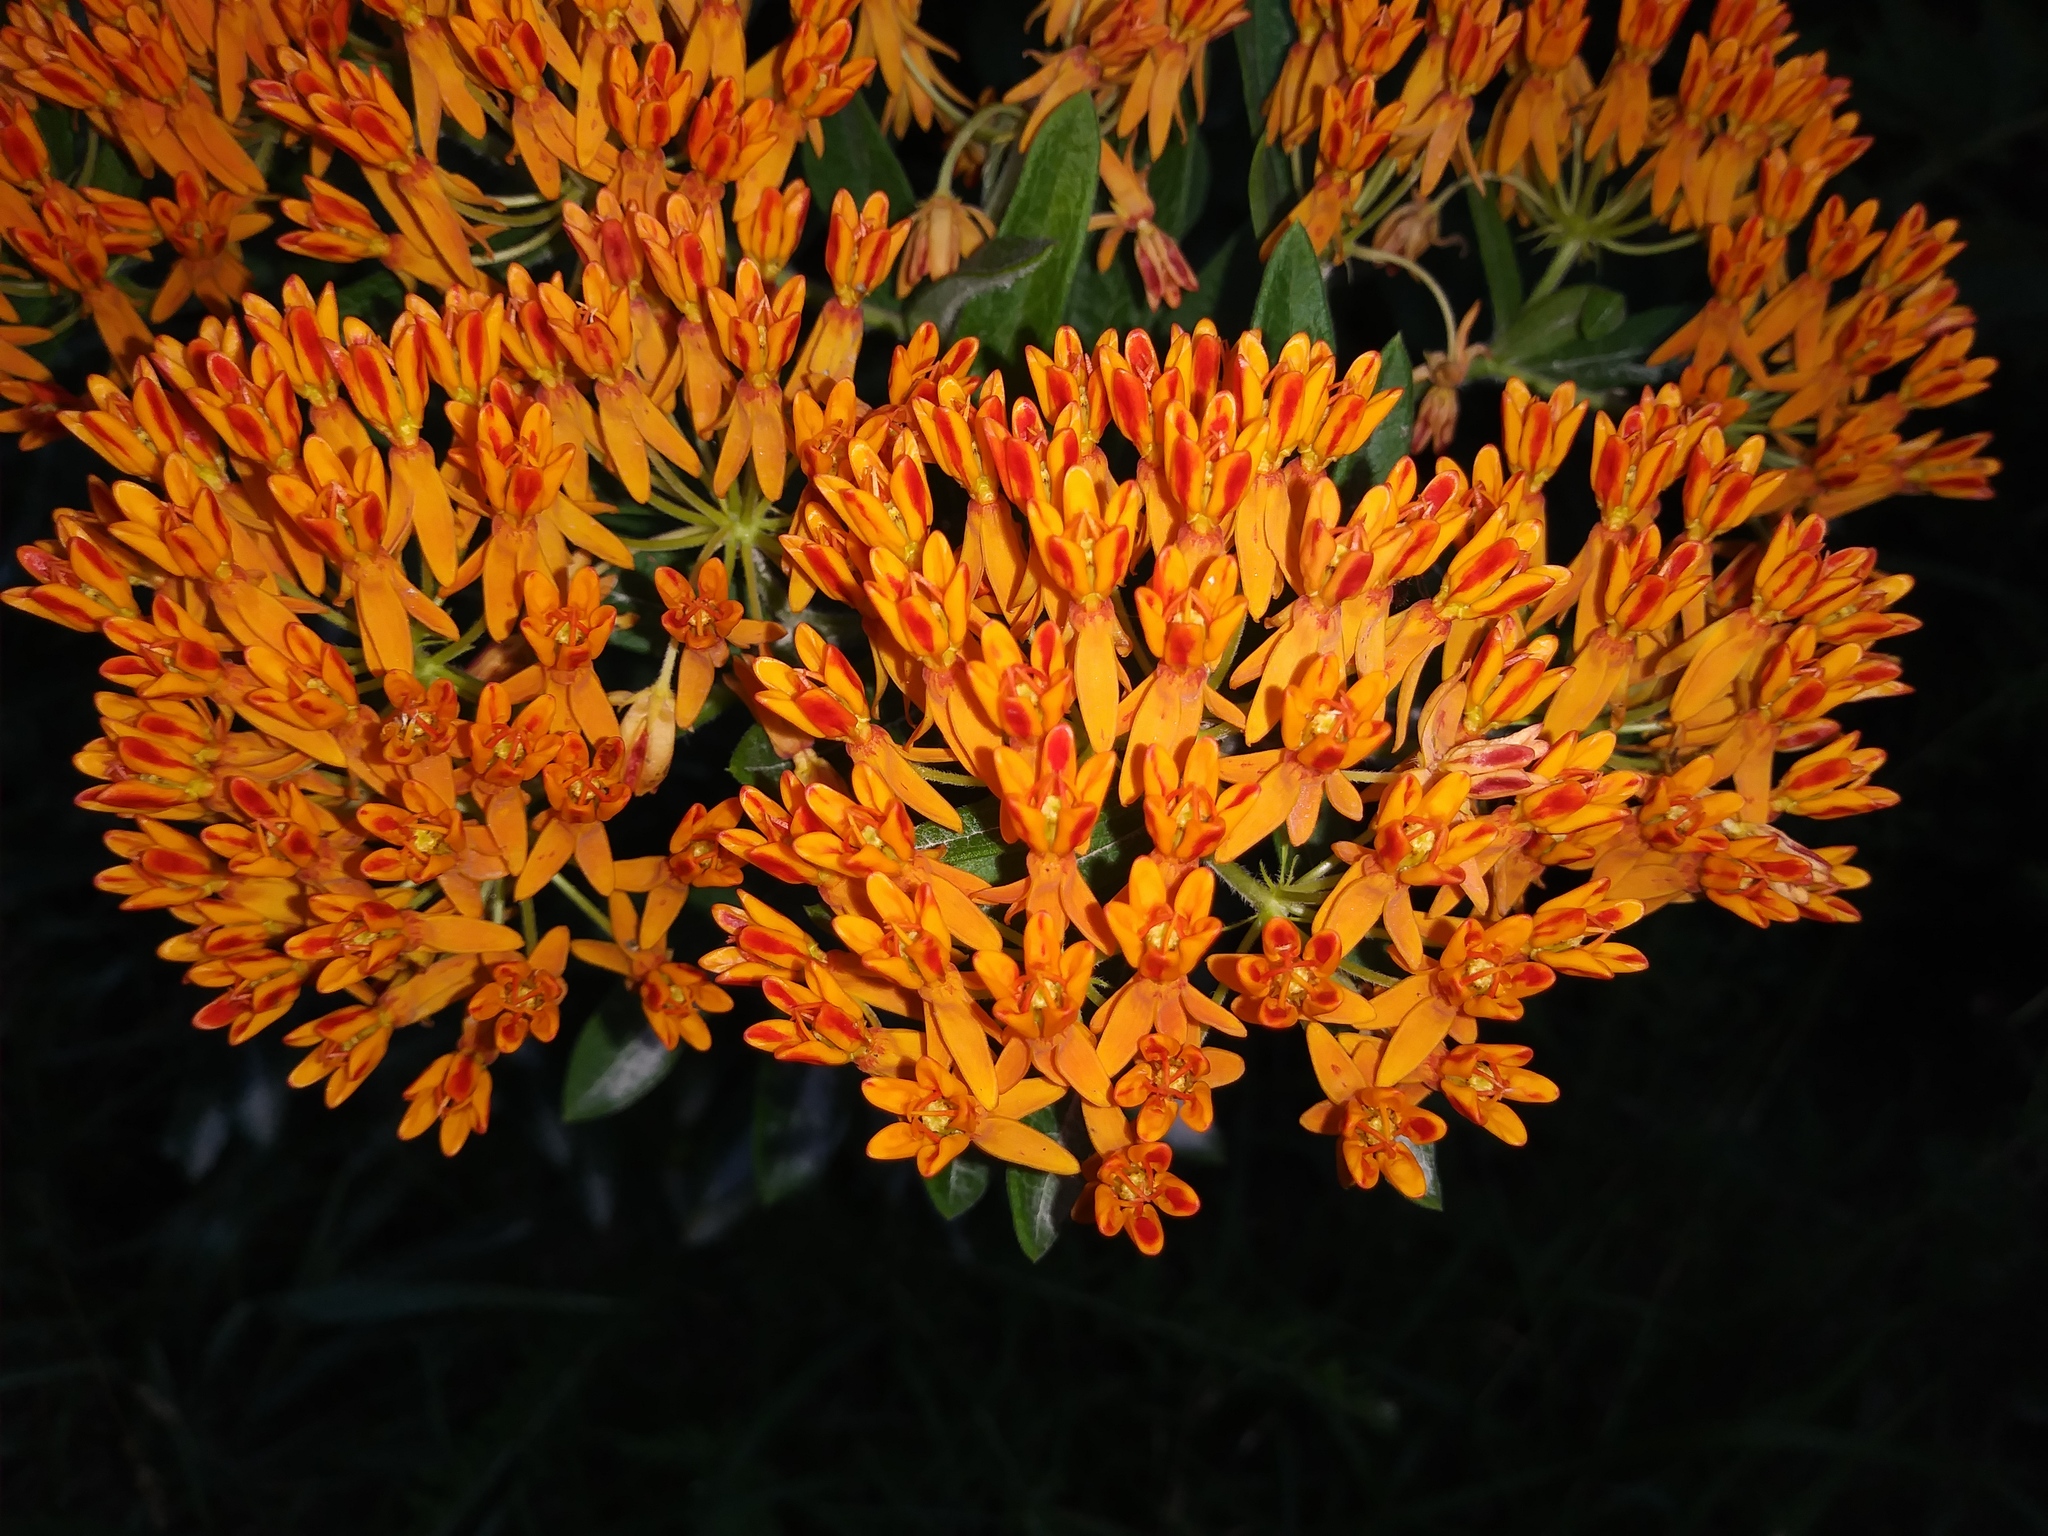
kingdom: Plantae
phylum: Tracheophyta
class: Magnoliopsida
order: Gentianales
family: Apocynaceae
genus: Asclepias
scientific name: Asclepias tuberosa
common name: Butterfly milkweed
